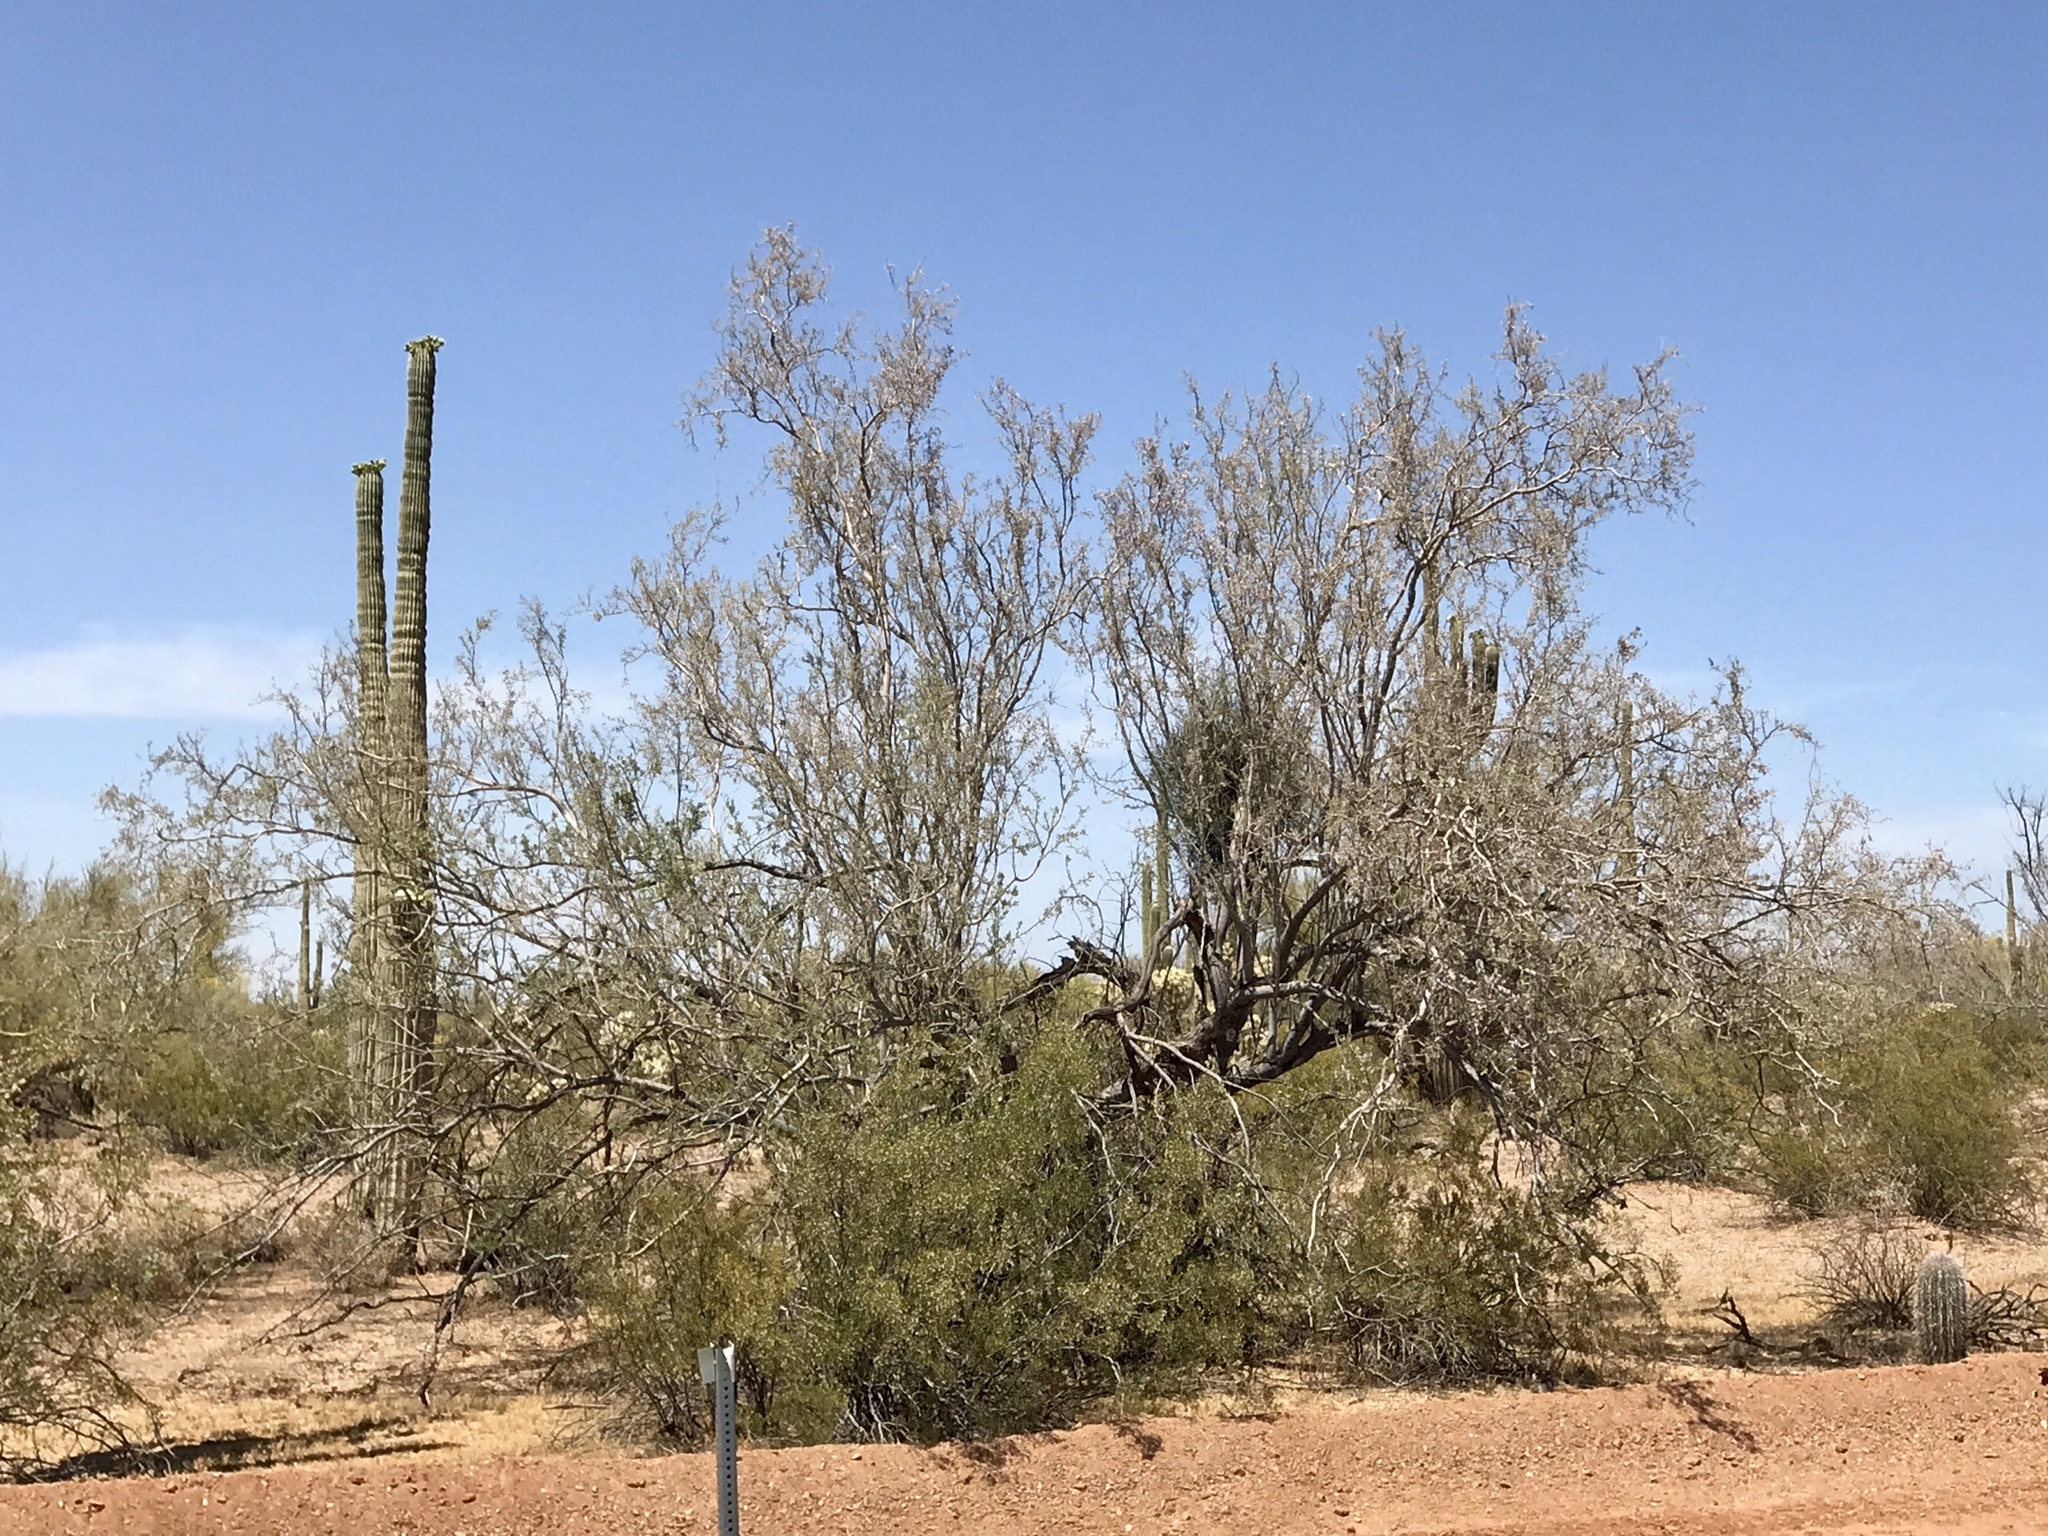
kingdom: Plantae
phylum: Tracheophyta
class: Magnoliopsida
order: Fabales
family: Fabaceae
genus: Olneya
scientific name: Olneya tesota
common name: Desert ironwood
